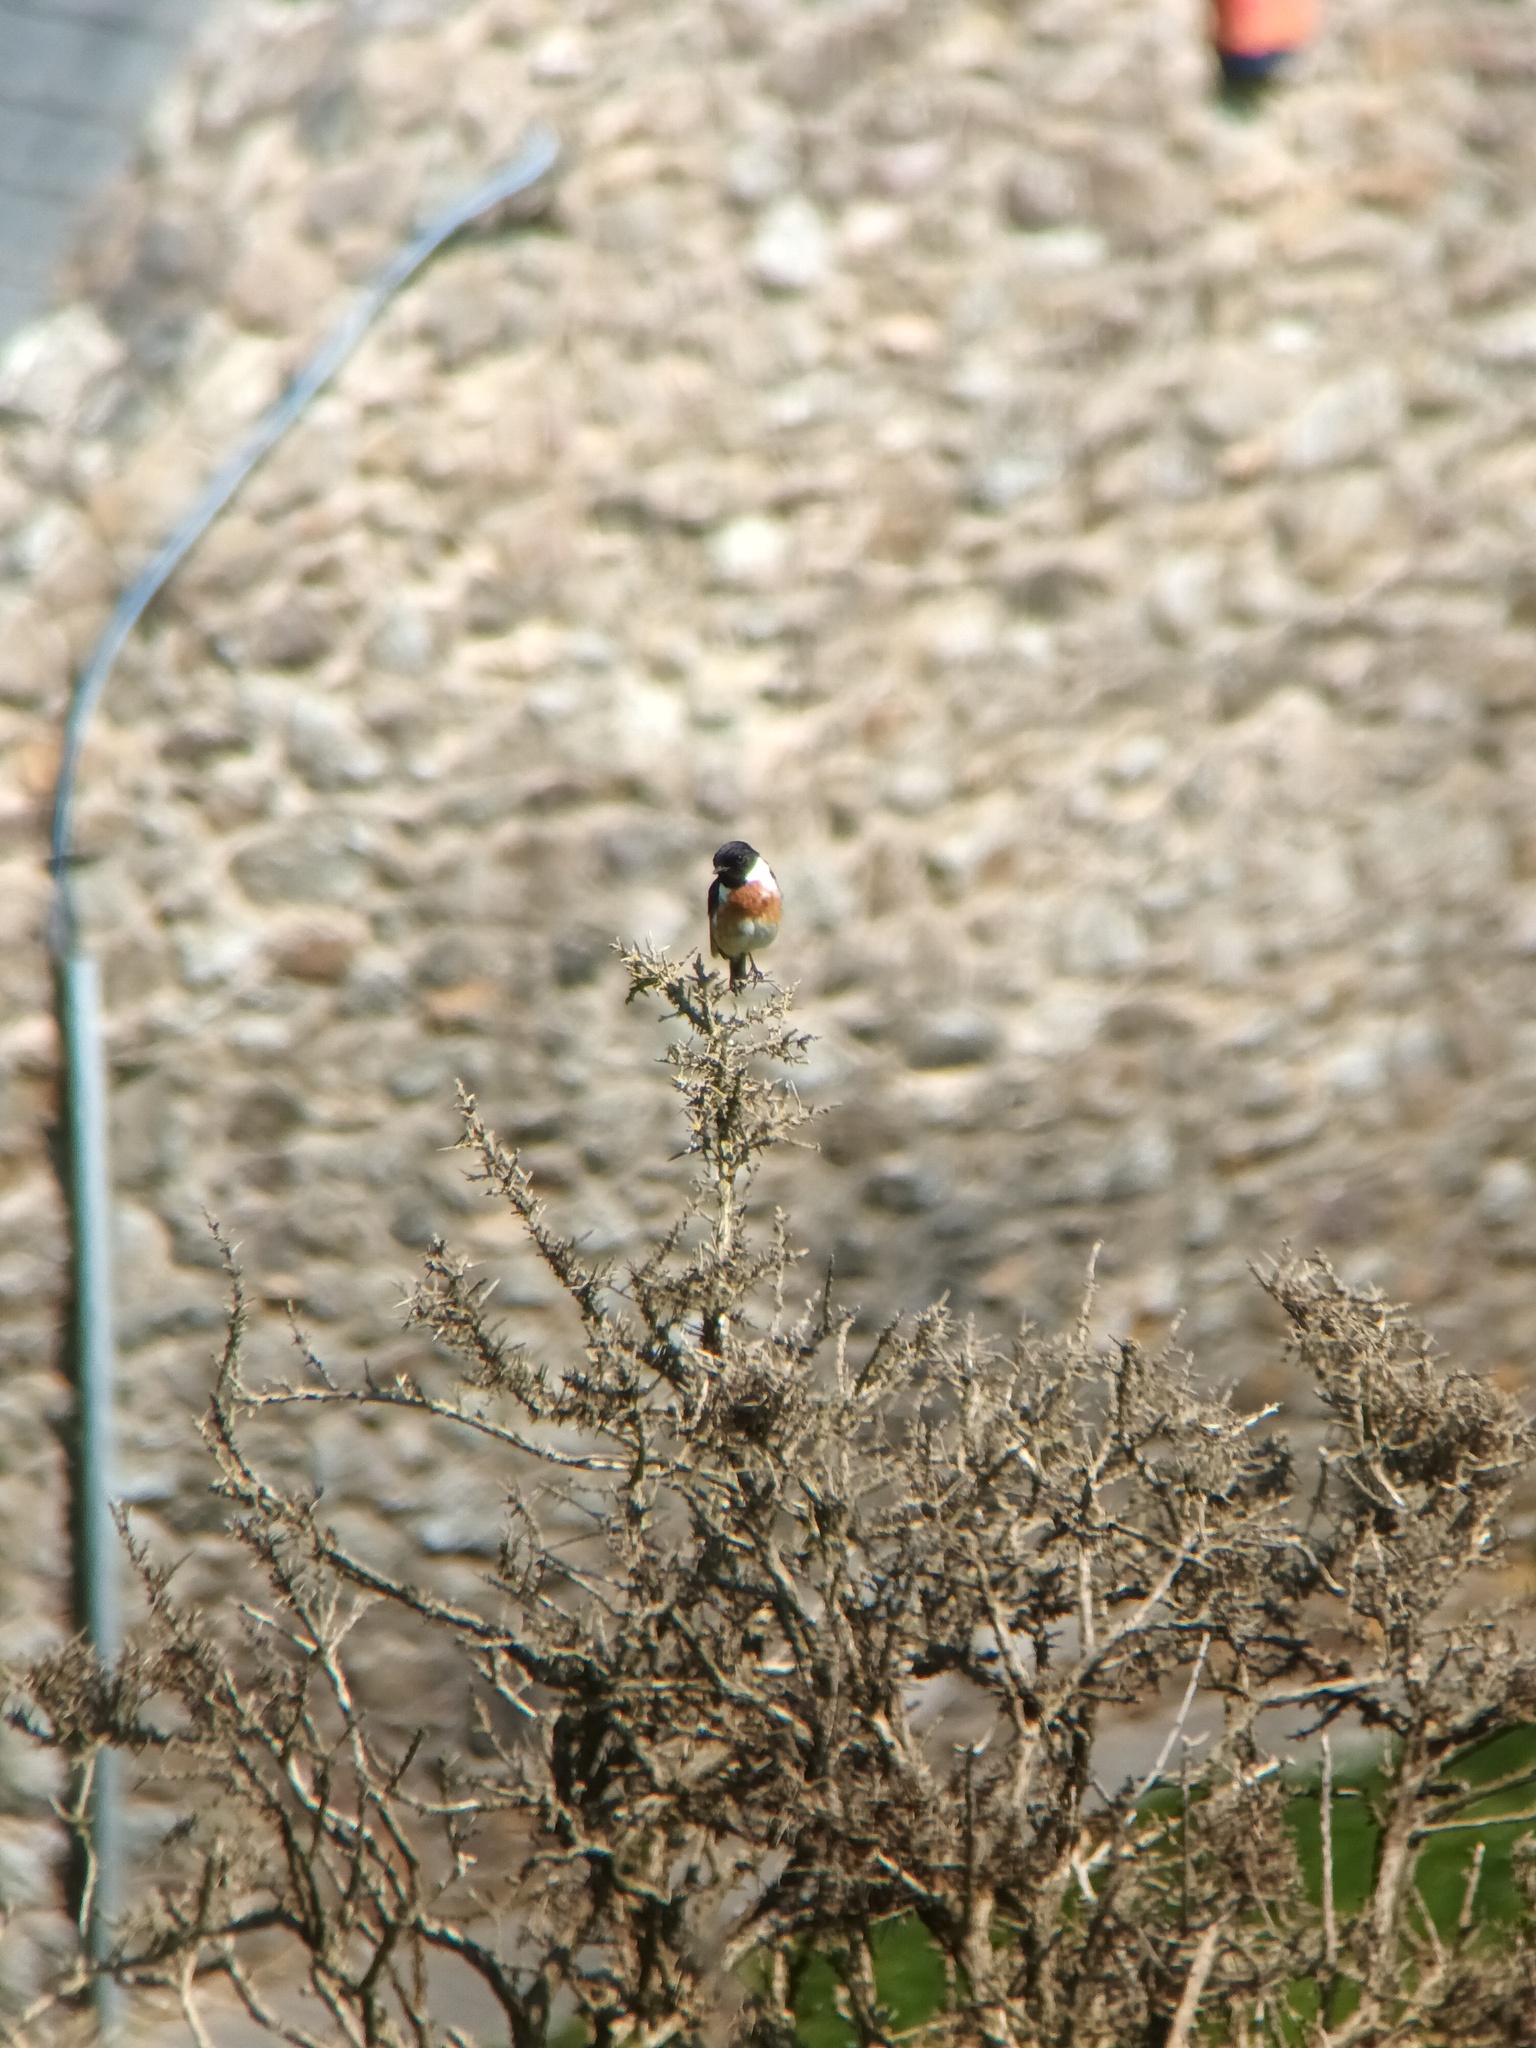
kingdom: Animalia
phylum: Chordata
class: Aves
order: Passeriformes
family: Muscicapidae
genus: Saxicola
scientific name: Saxicola rubicola
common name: European stonechat
